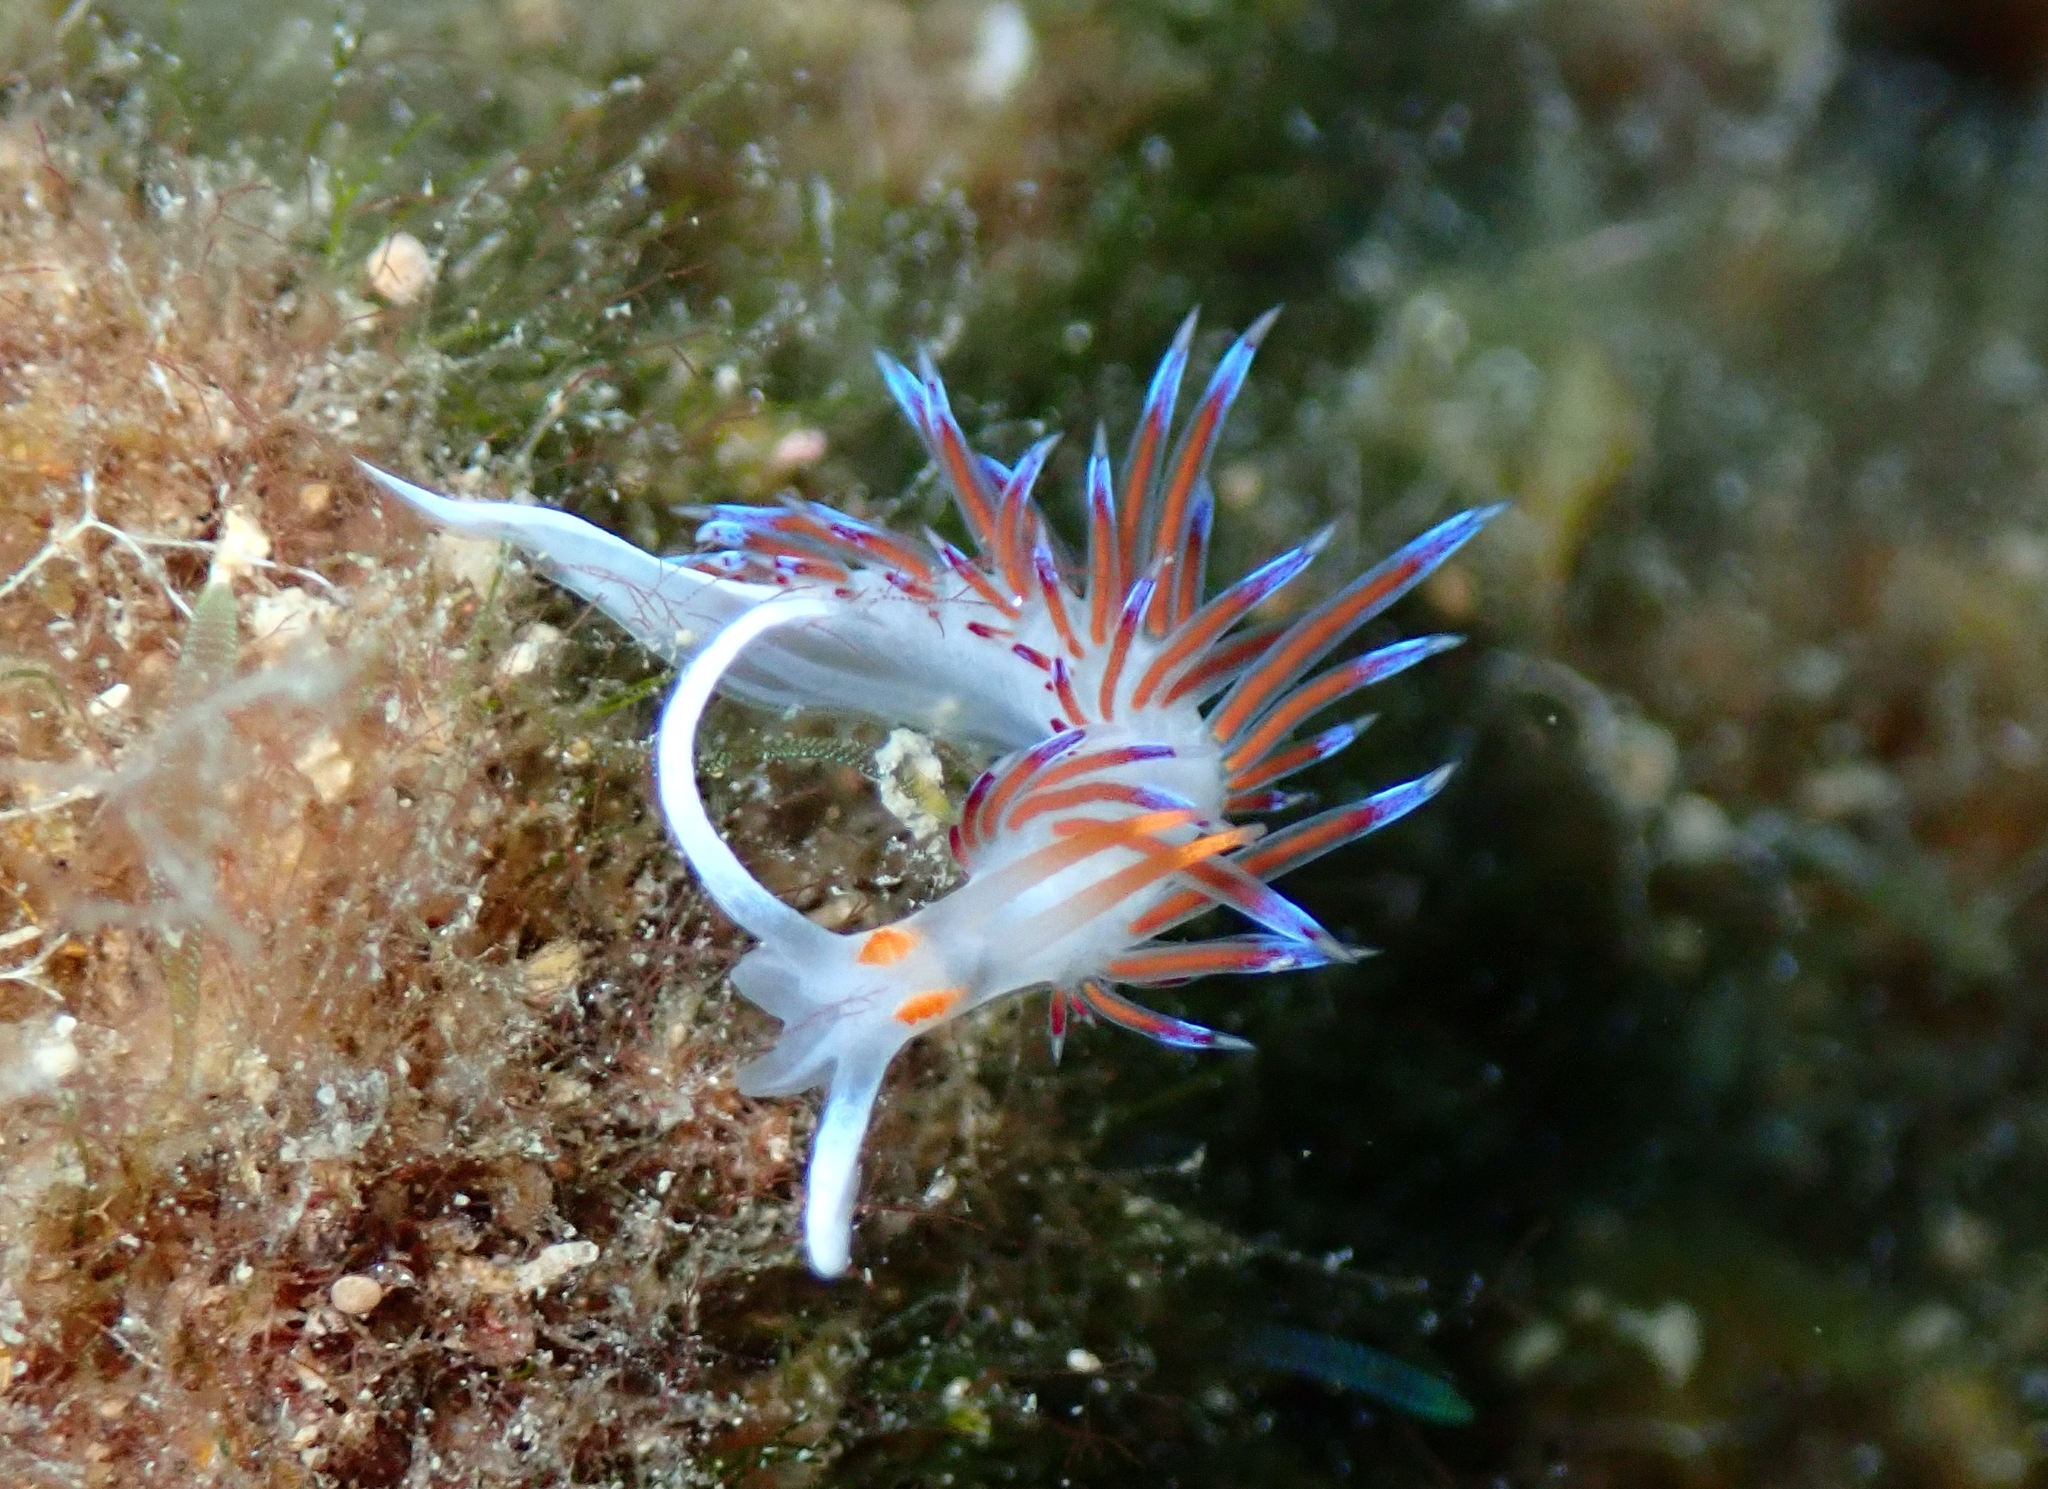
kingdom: Animalia
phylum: Mollusca
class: Gastropoda
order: Nudibranchia
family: Facelinidae
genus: Cratena
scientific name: Cratena peregrina
